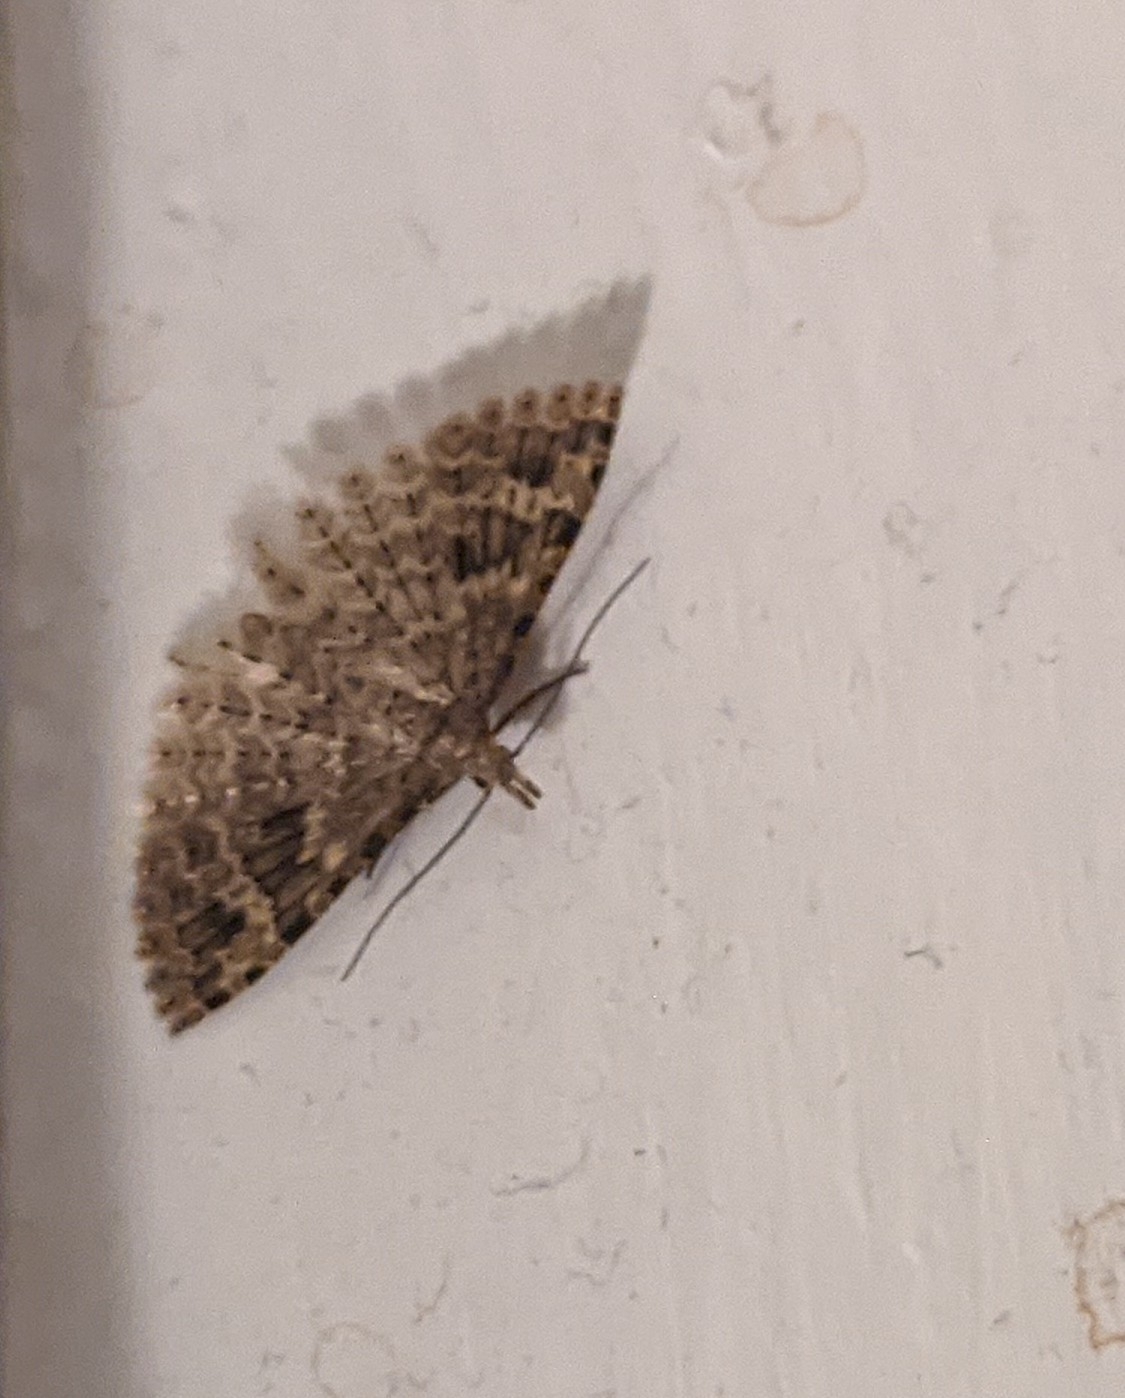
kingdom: Animalia
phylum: Arthropoda
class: Insecta
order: Lepidoptera
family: Alucitidae
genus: Alucita
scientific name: Alucita hexadactyla
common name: Twenty-plume moth
